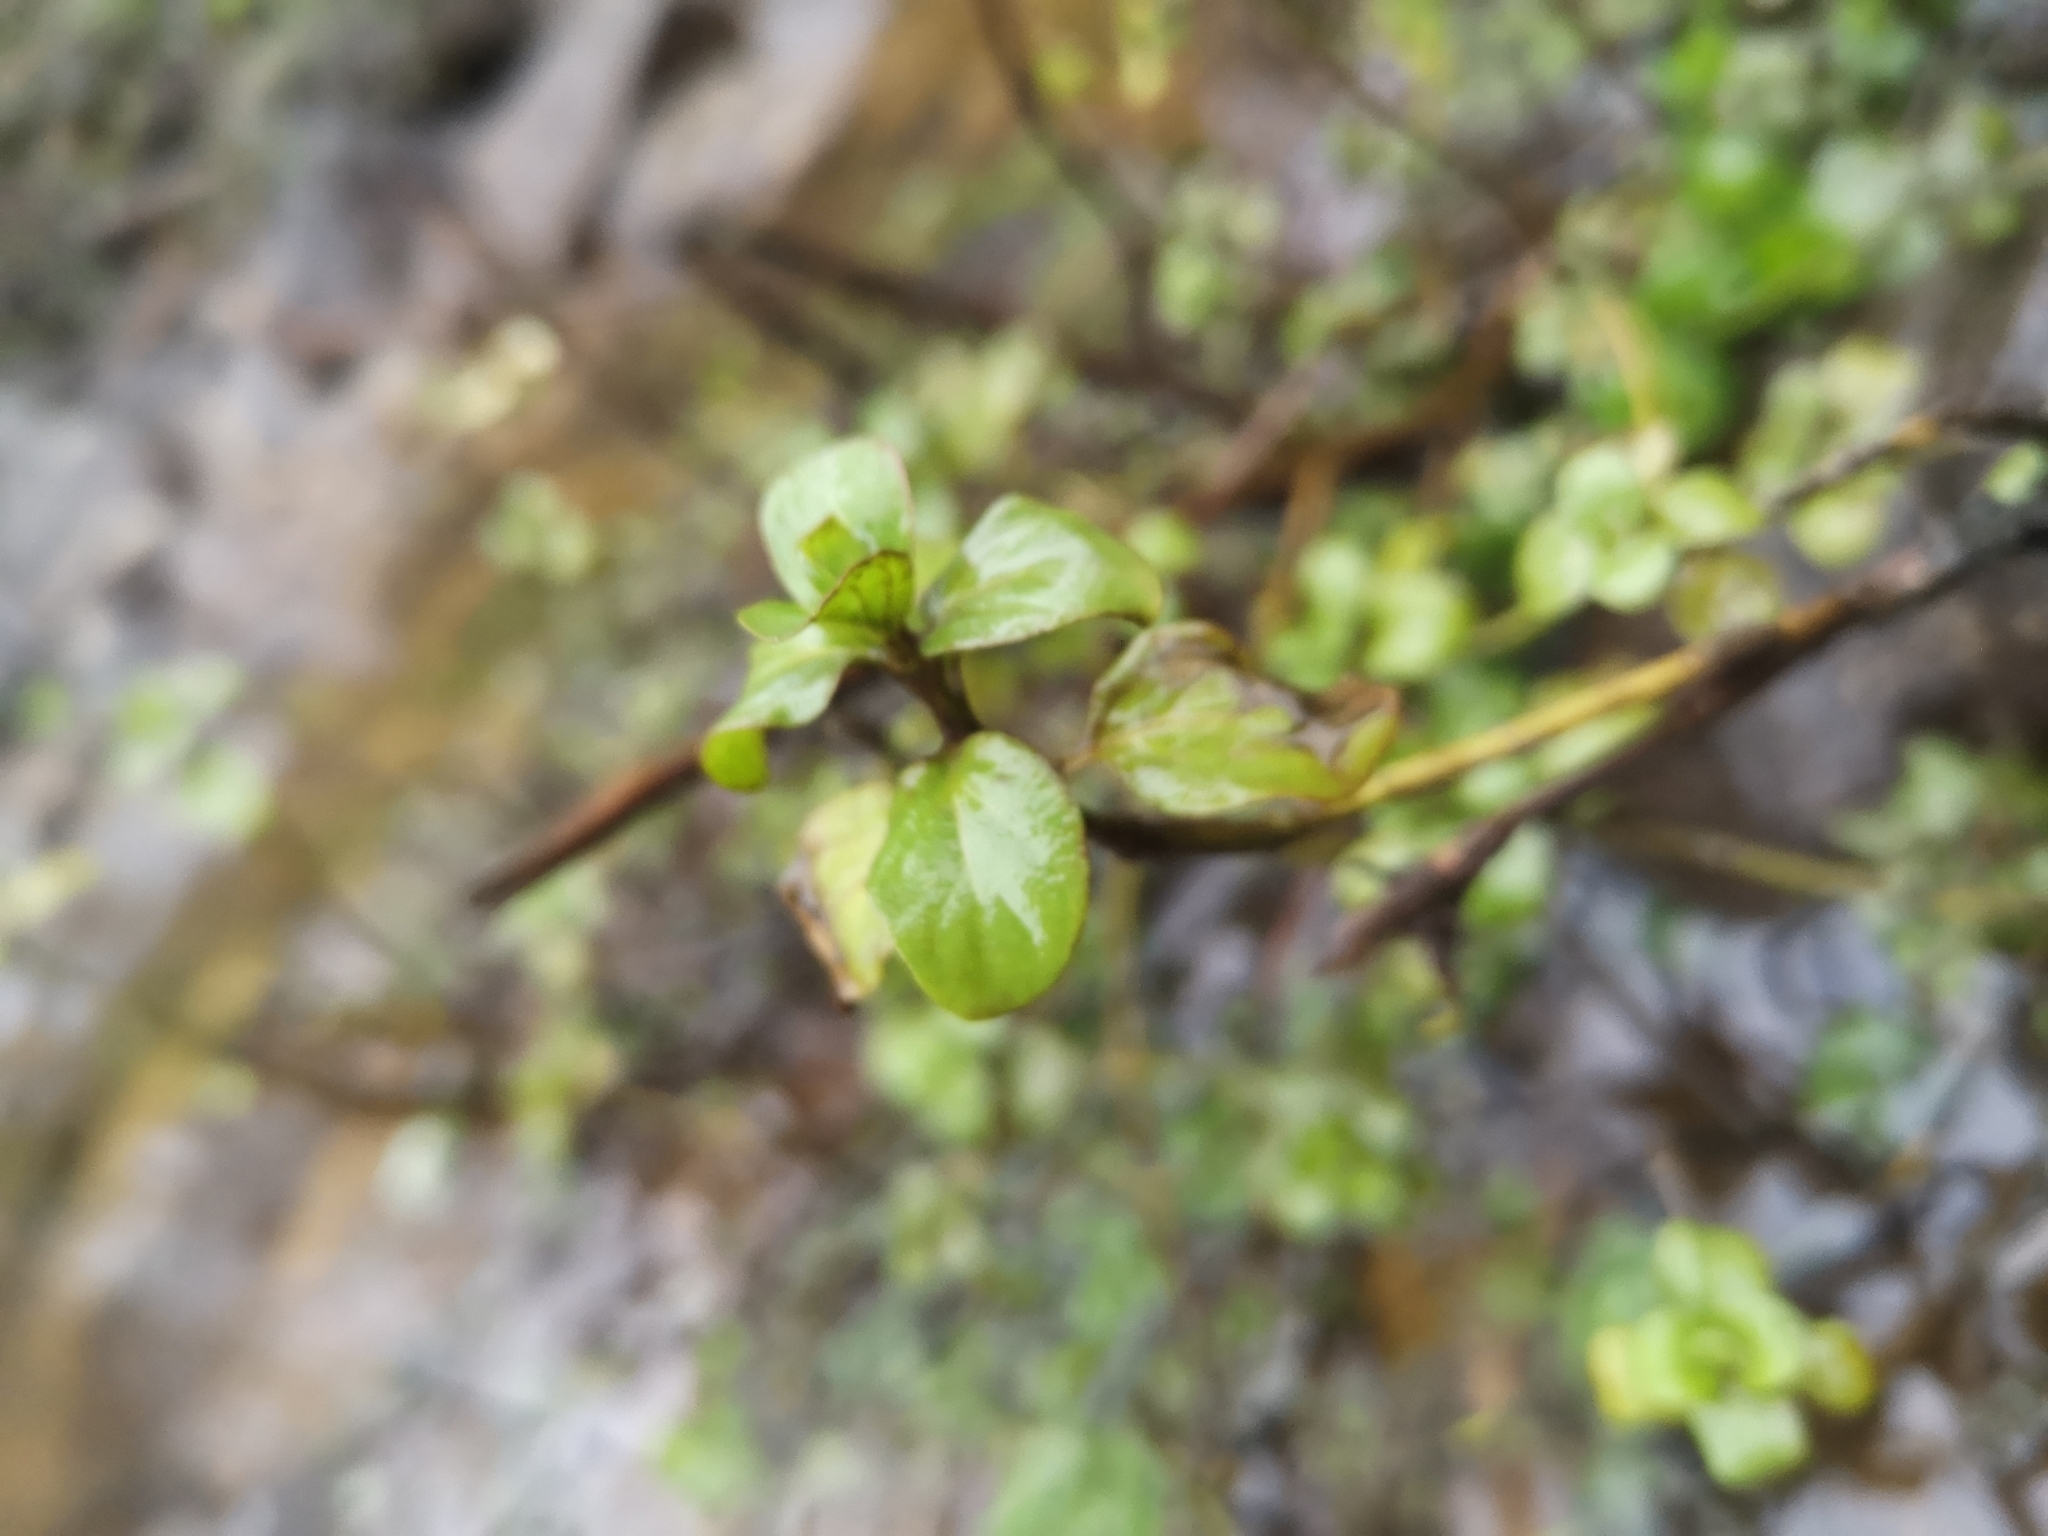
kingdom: Plantae
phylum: Tracheophyta
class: Magnoliopsida
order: Lamiales
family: Lamiaceae
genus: Mentha
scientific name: Mentha aquatica
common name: Water mint
